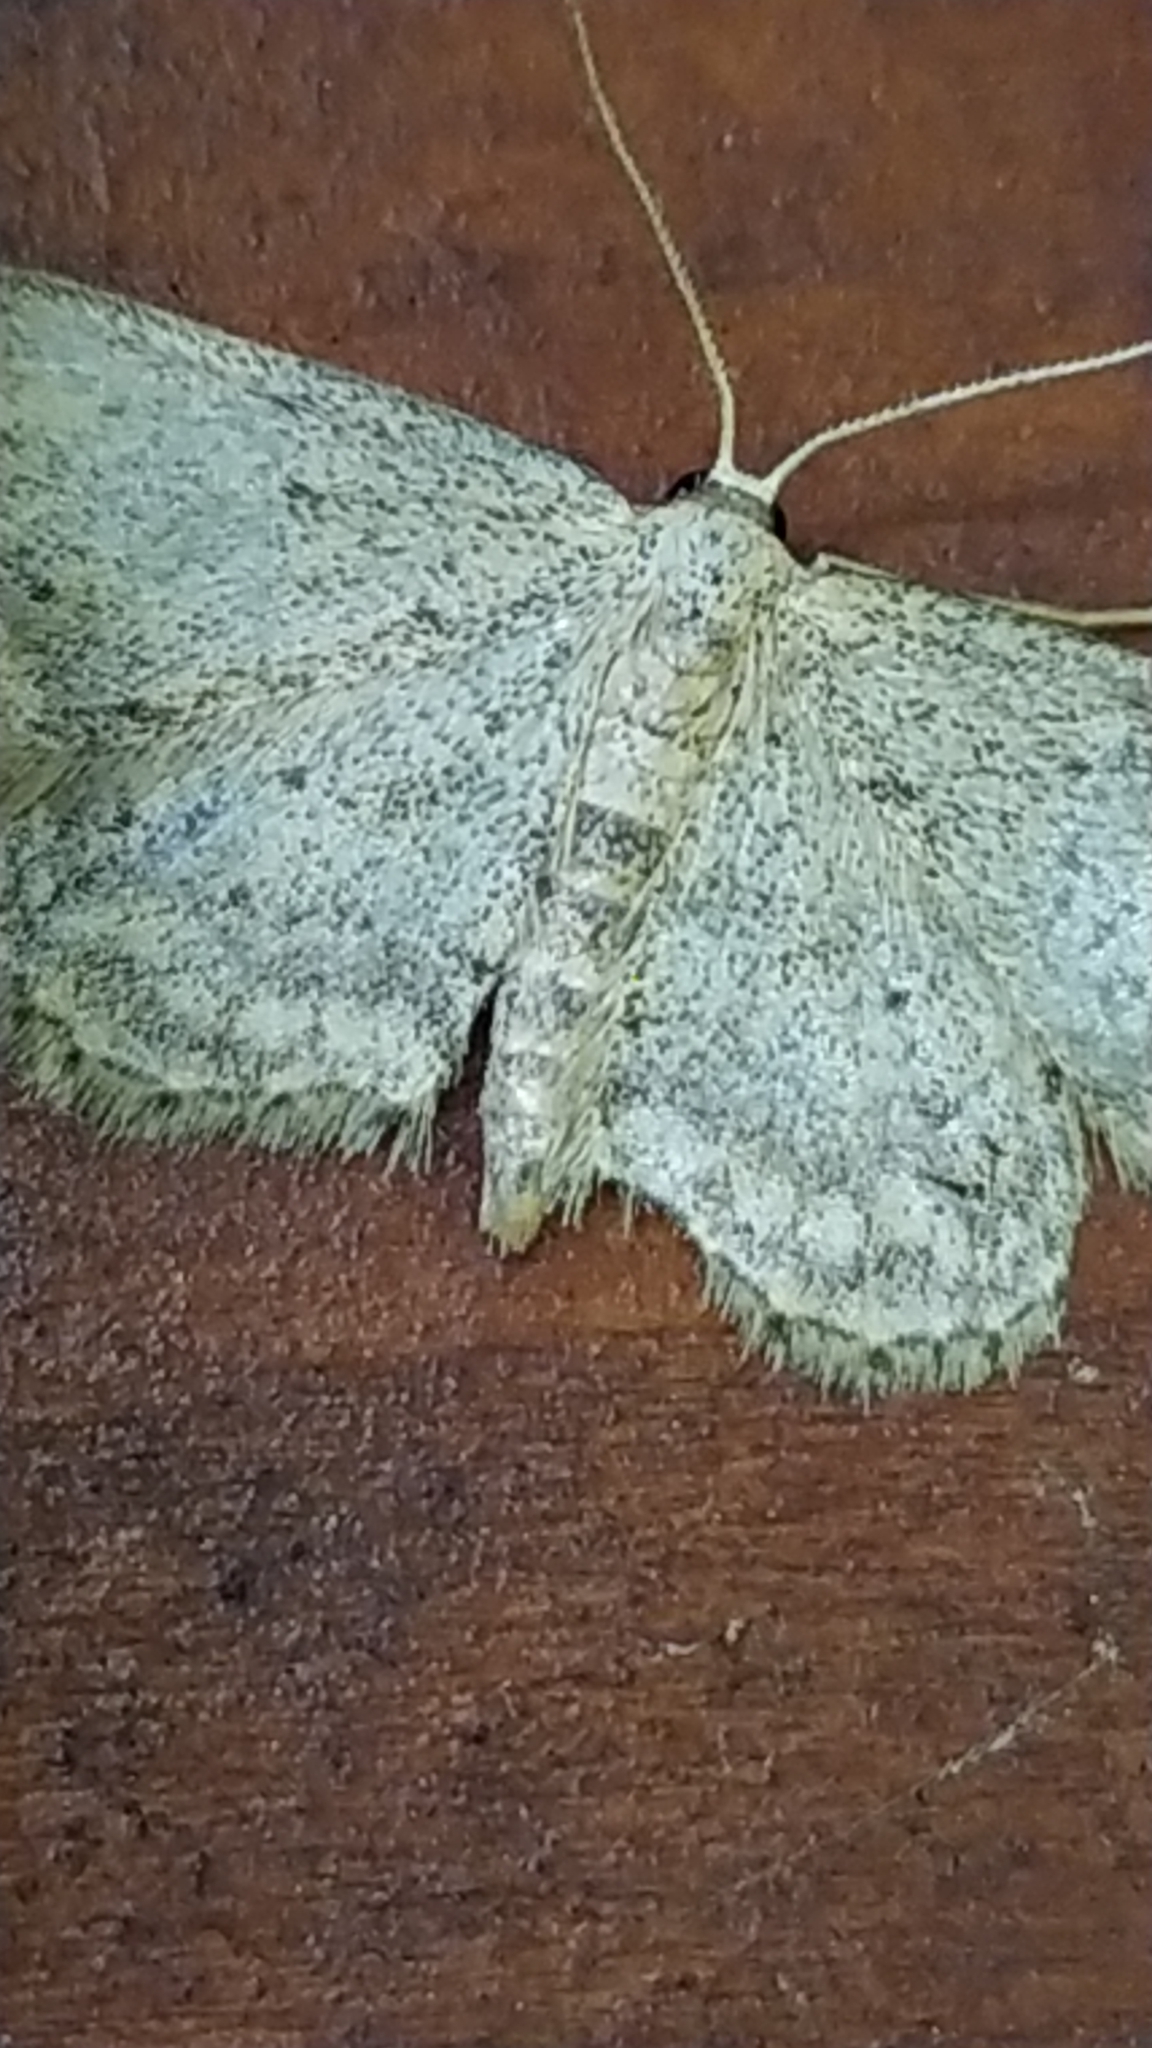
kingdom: Animalia
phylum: Arthropoda
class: Insecta
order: Lepidoptera
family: Geometridae
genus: Idaea
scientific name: Idaea seriata
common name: Small dusty wave
